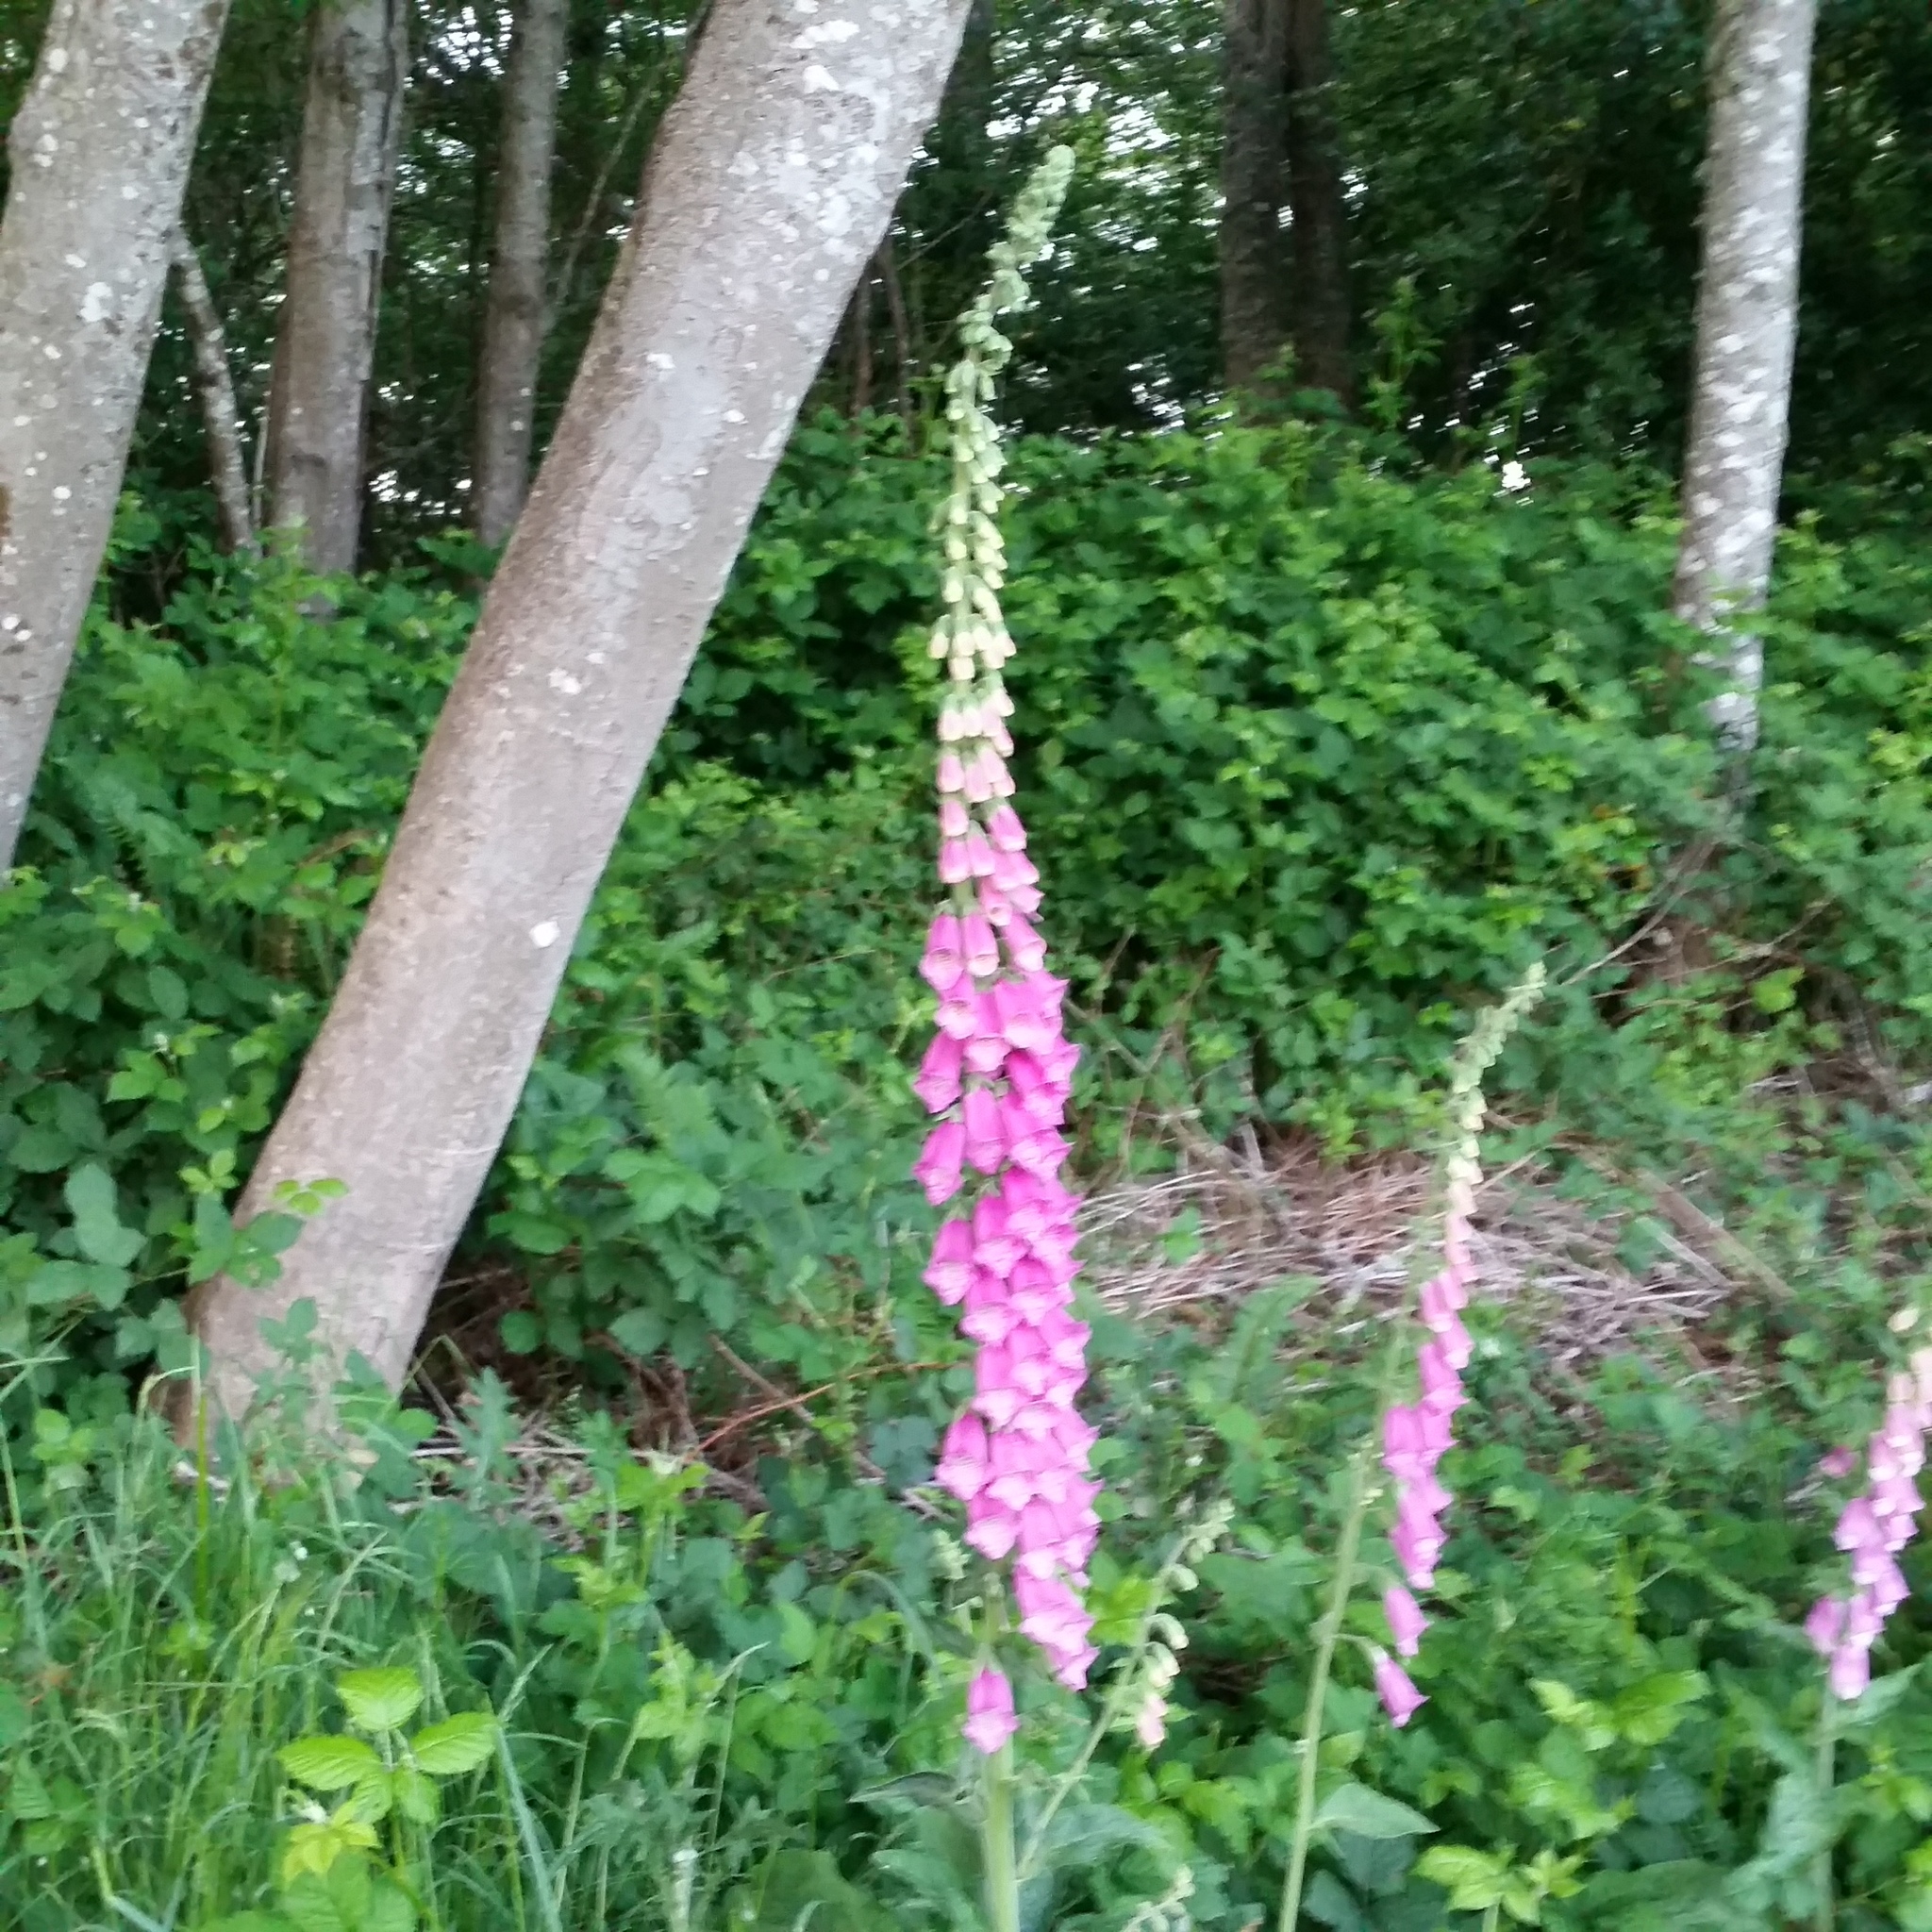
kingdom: Plantae
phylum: Tracheophyta
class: Magnoliopsida
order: Lamiales
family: Plantaginaceae
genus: Digitalis
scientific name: Digitalis purpurea
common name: Foxglove
